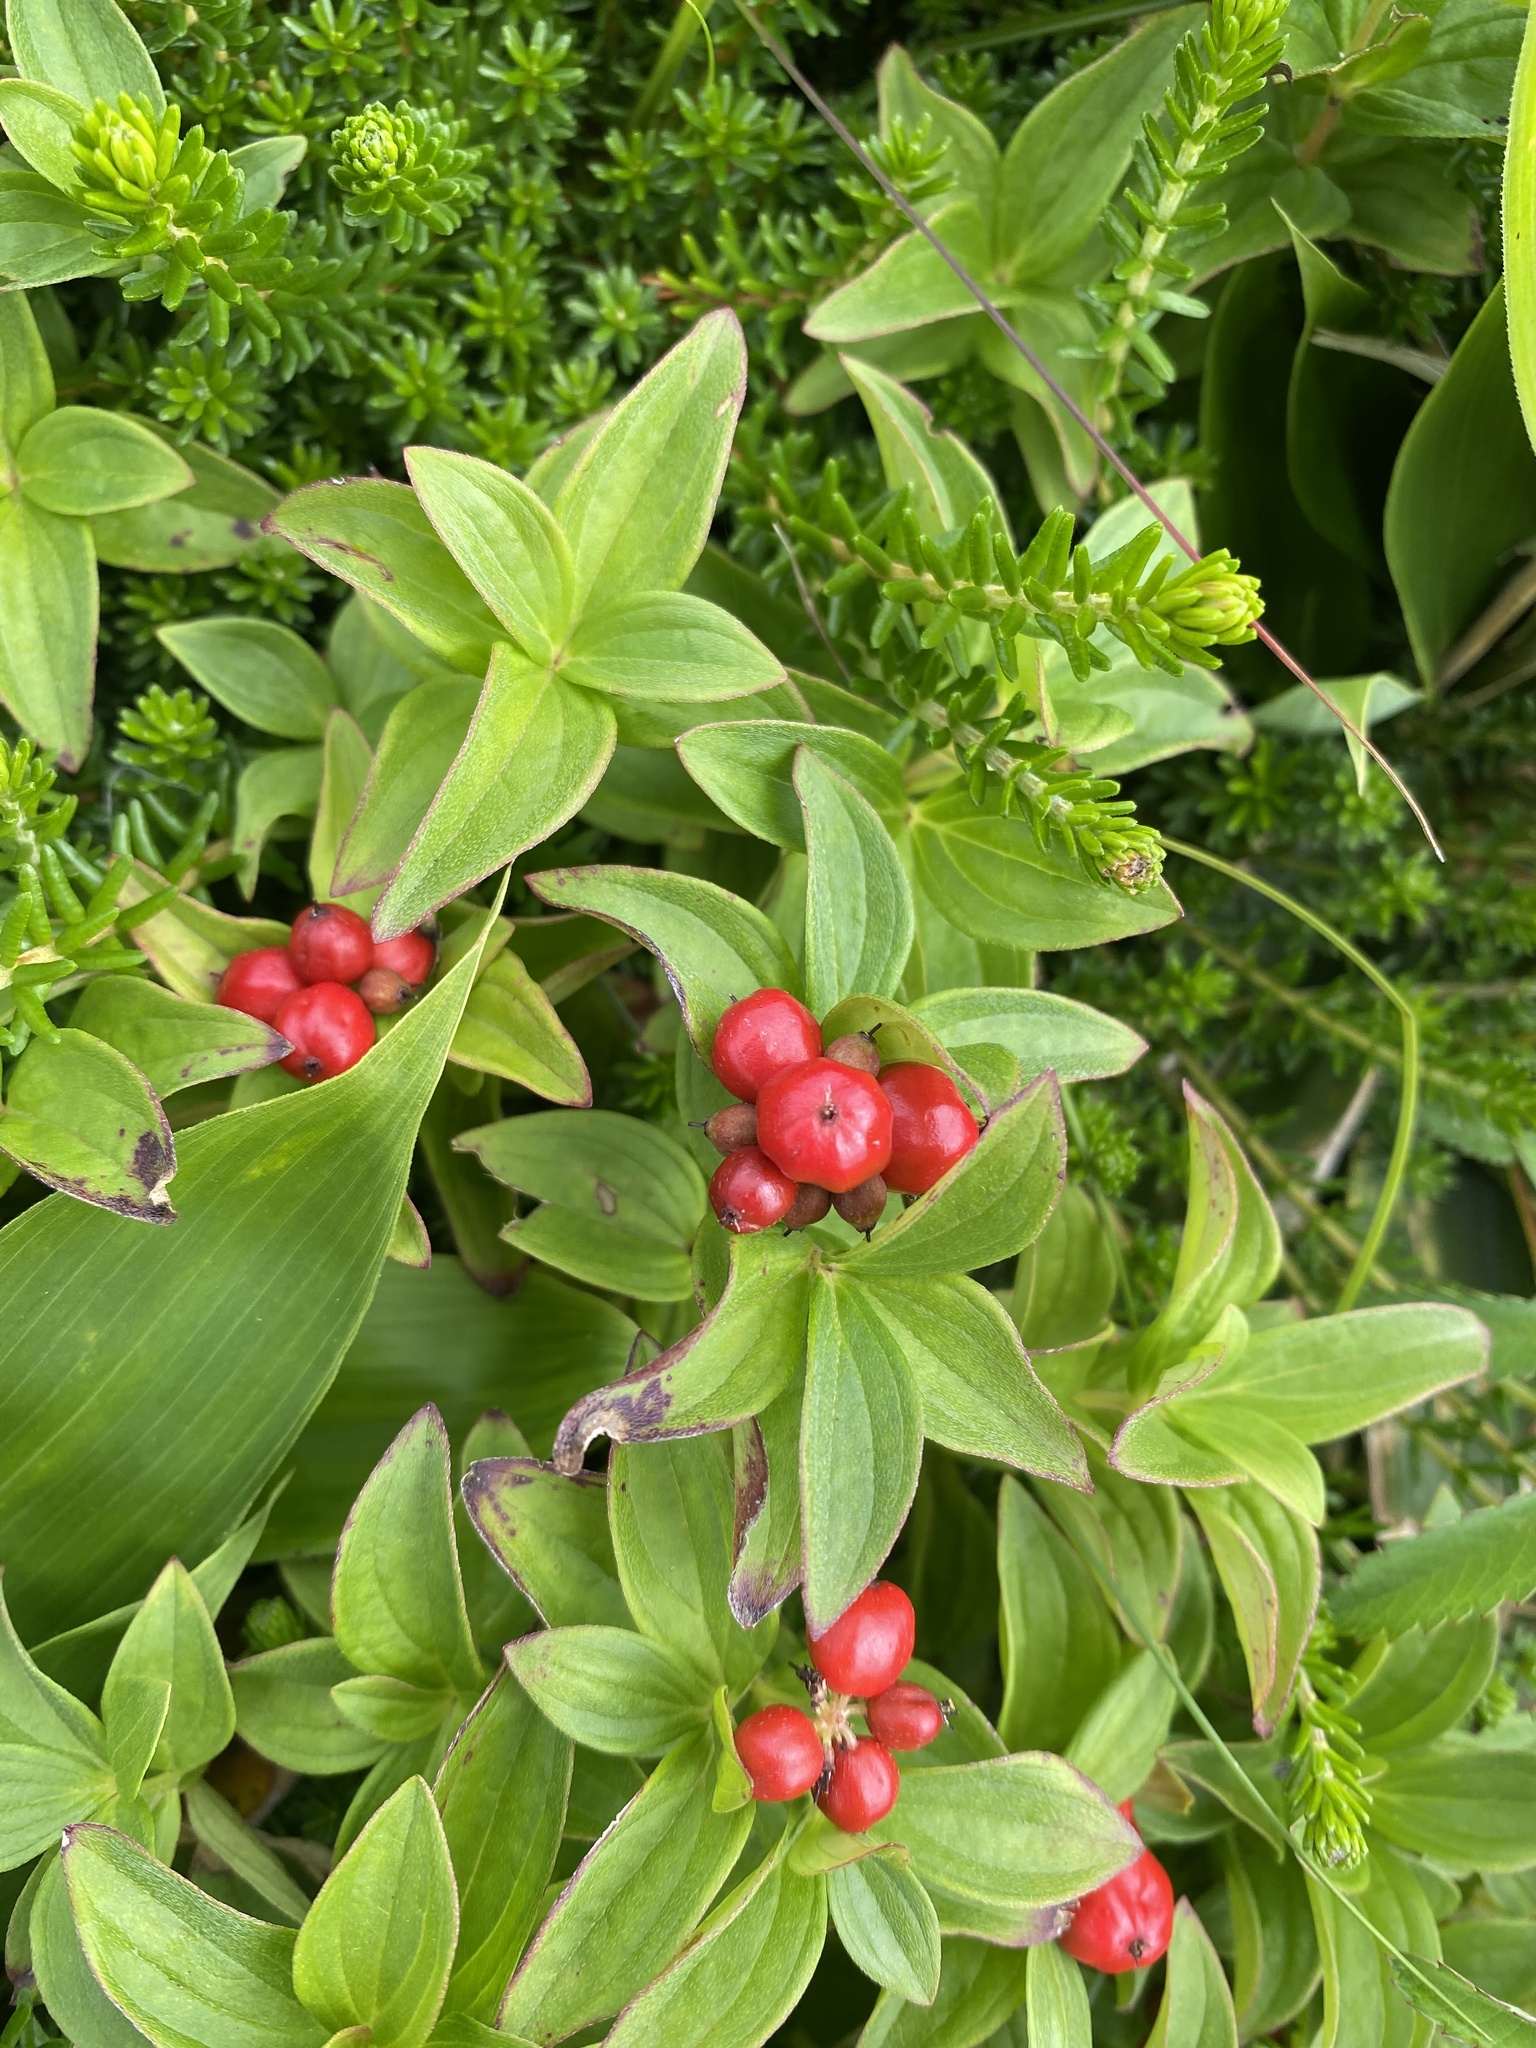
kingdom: Plantae
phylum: Tracheophyta
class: Magnoliopsida
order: Cornales
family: Cornaceae
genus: Cornus
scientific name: Cornus suecica
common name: Dwarf cornel
